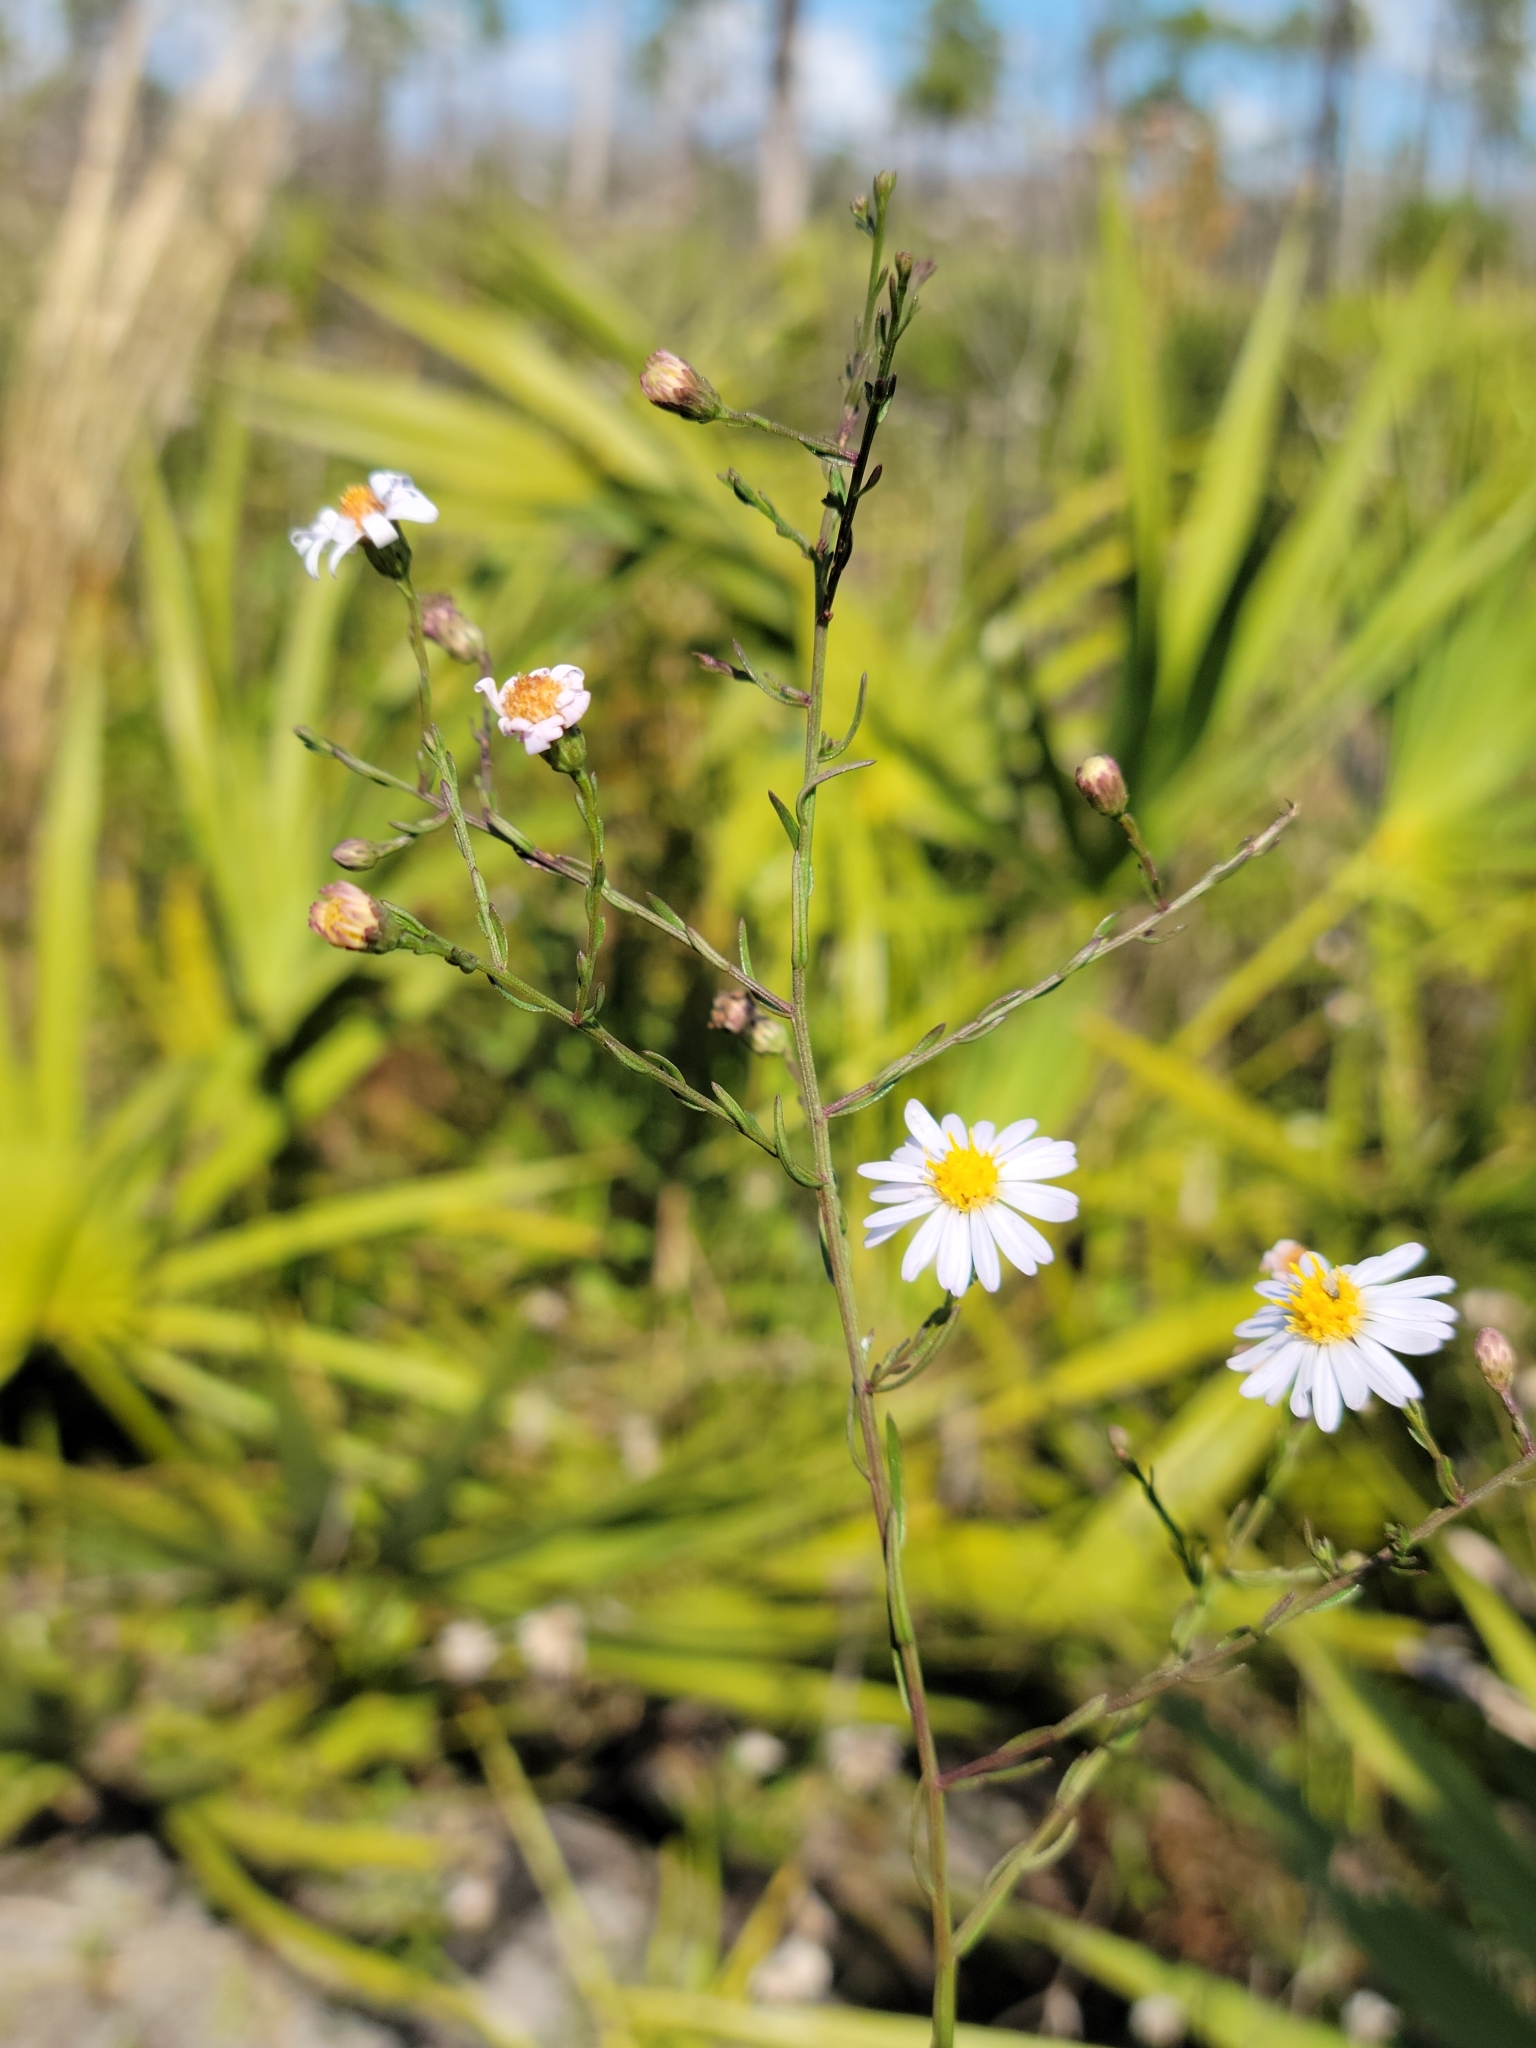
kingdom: Plantae
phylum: Tracheophyta
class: Magnoliopsida
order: Asterales
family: Asteraceae
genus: Symphyotrichum
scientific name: Symphyotrichum dumosum
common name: Bushy aster
